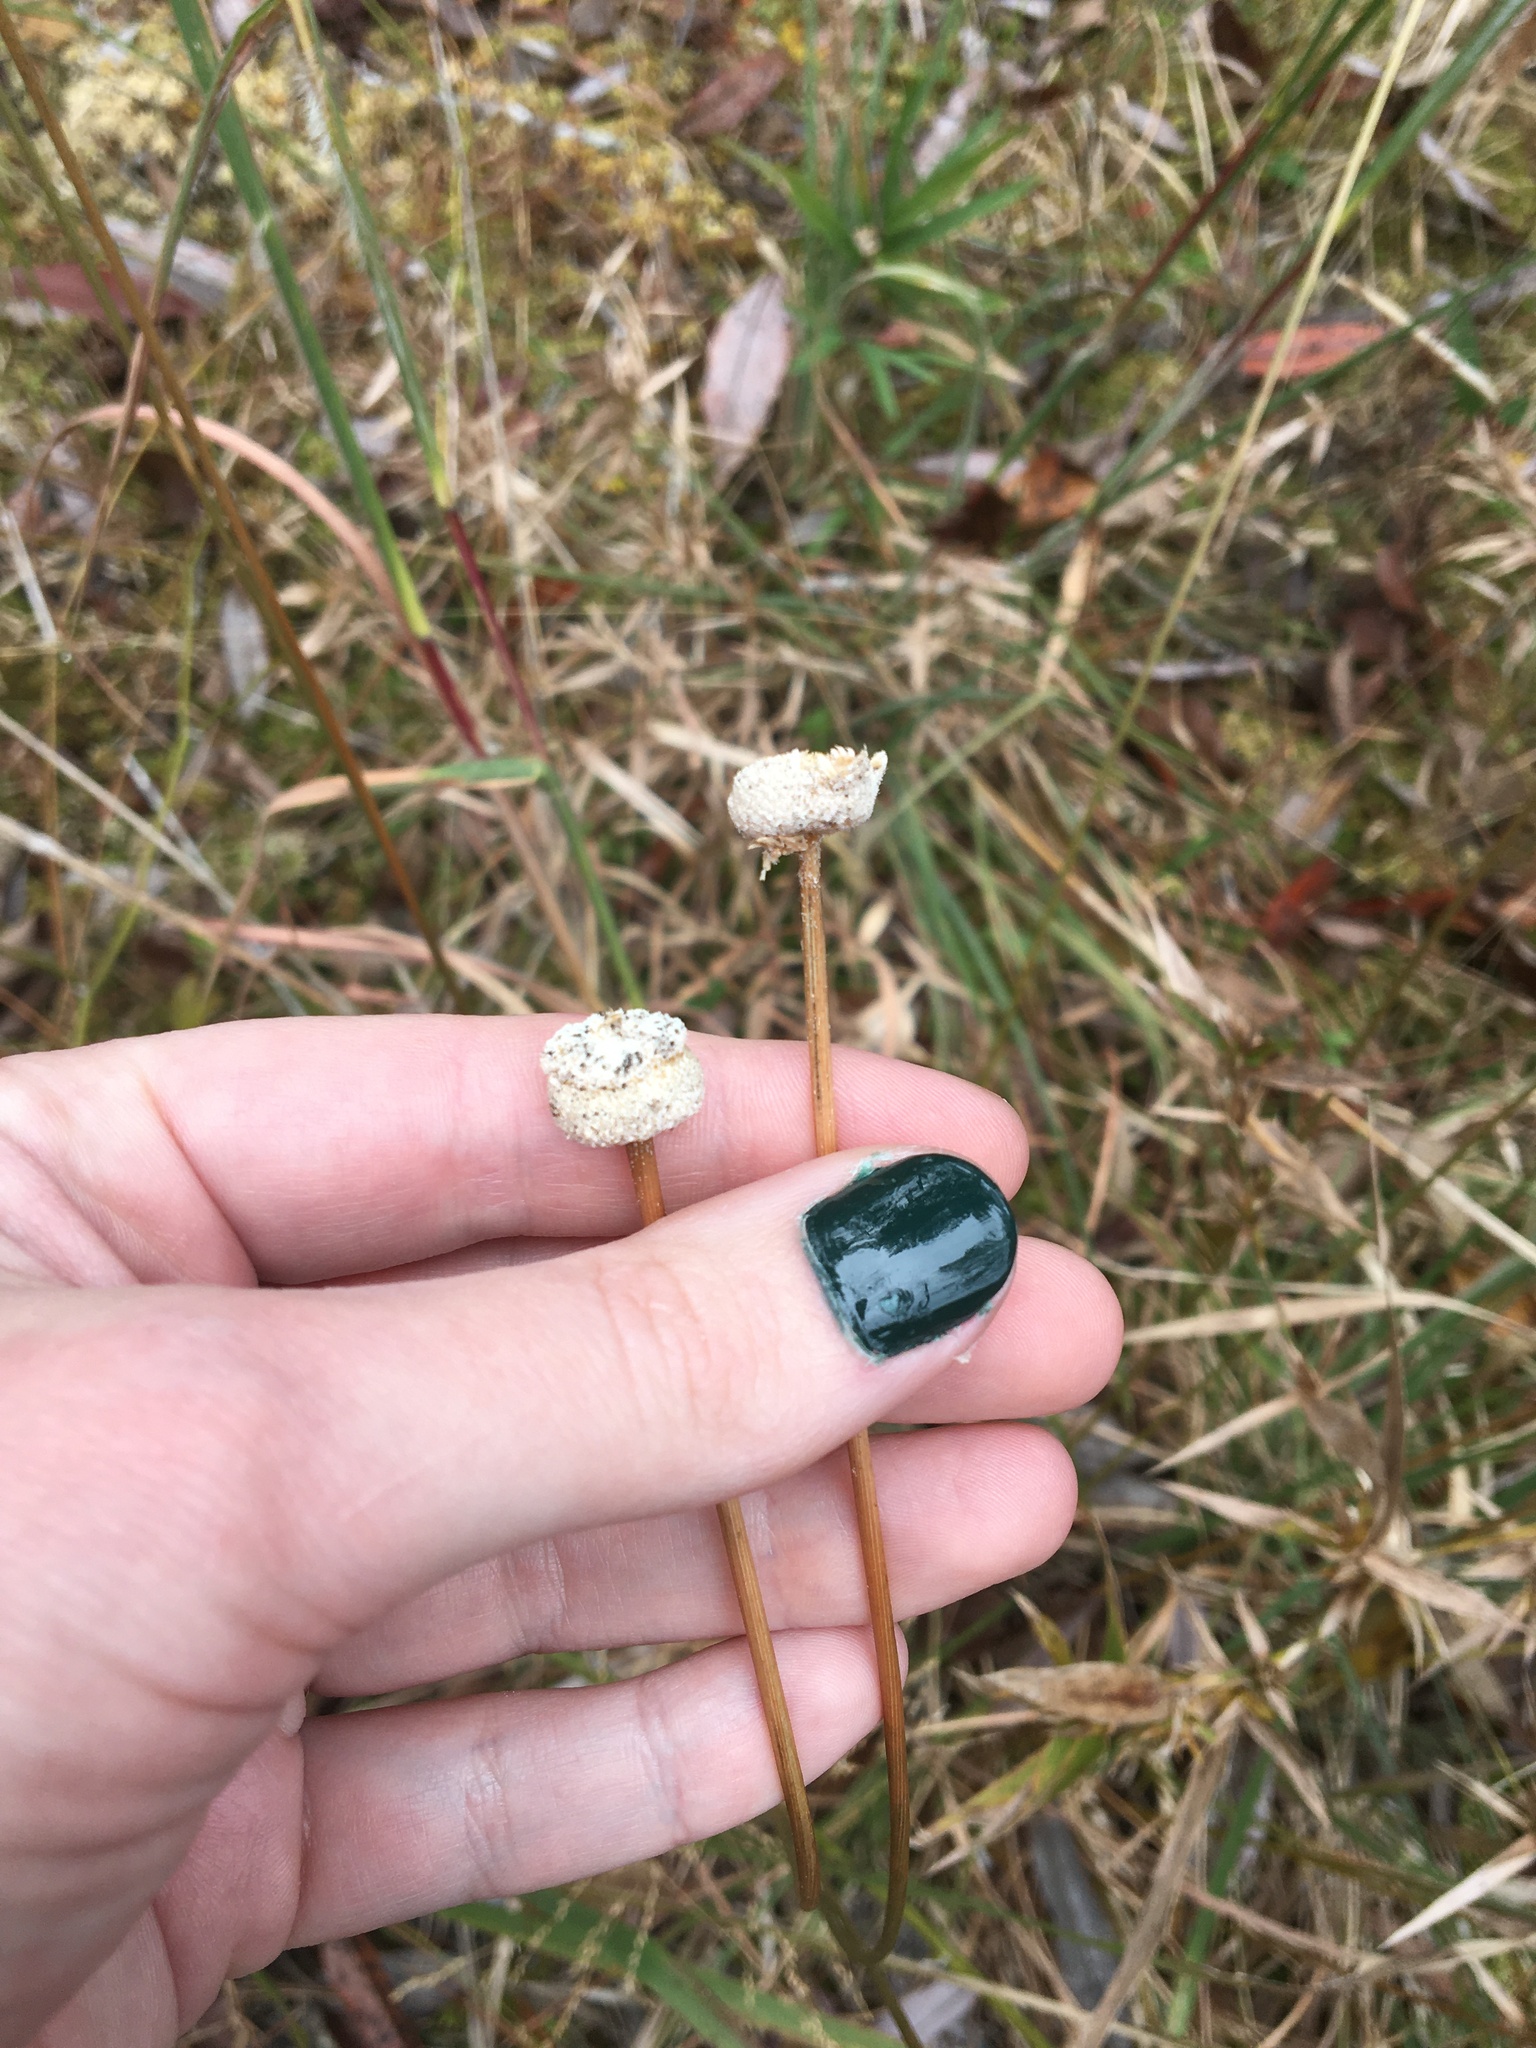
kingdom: Plantae
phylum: Tracheophyta
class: Liliopsida
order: Poales
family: Eriocaulaceae
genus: Eriocaulon
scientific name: Eriocaulon decangulare
